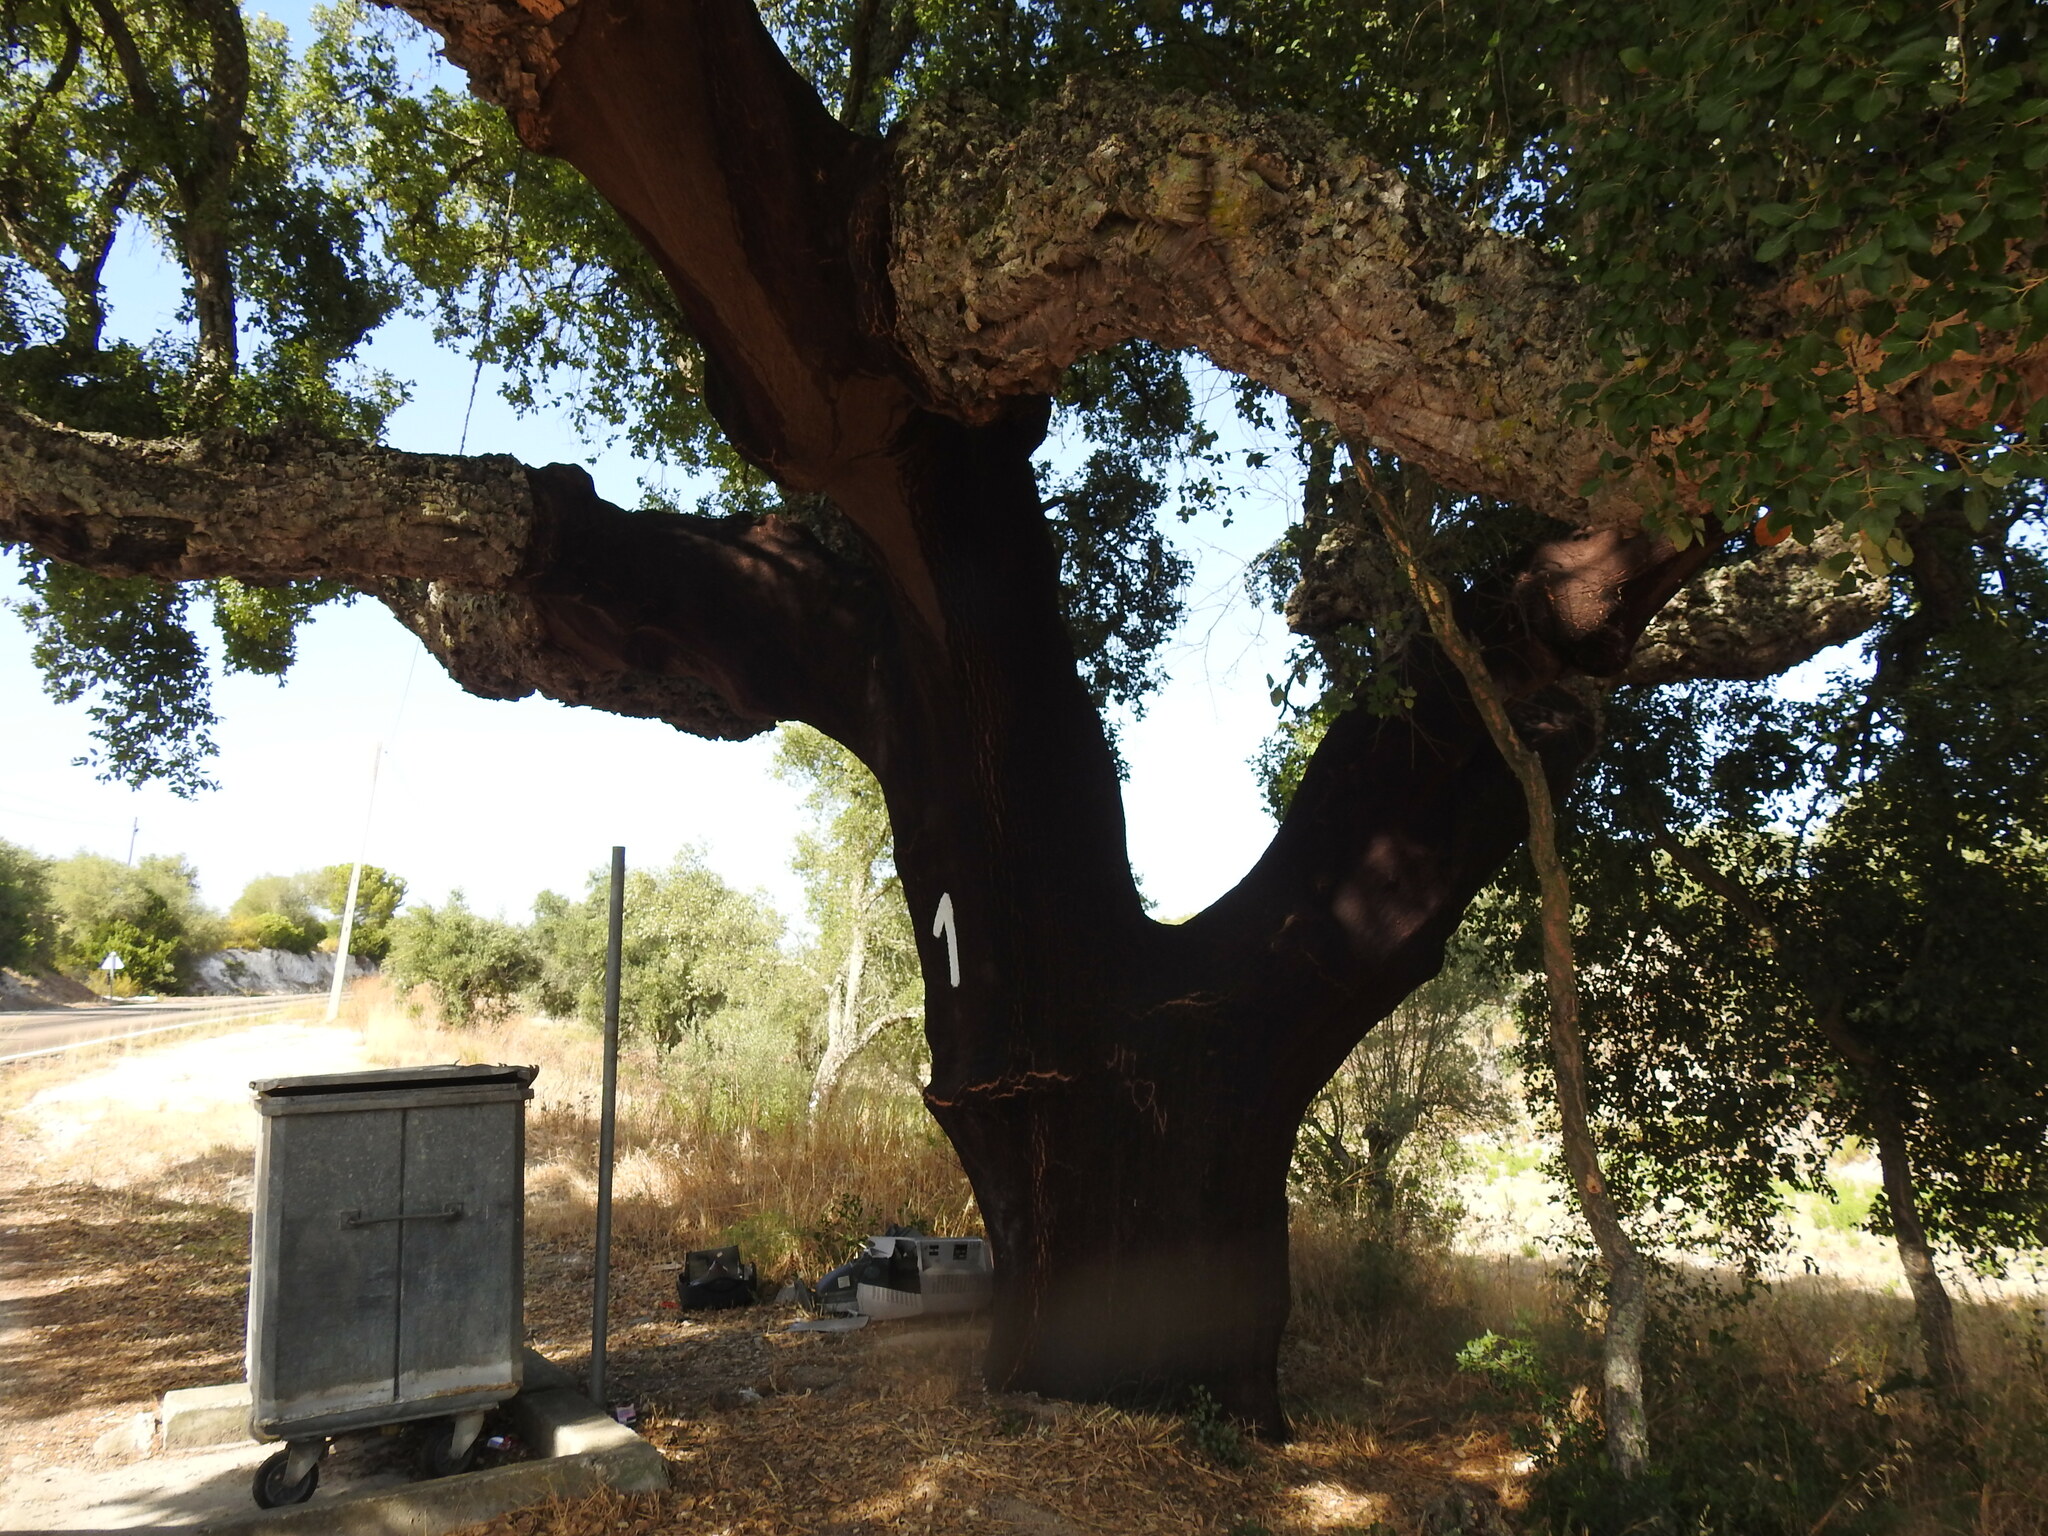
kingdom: Plantae
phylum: Tracheophyta
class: Magnoliopsida
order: Fagales
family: Fagaceae
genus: Quercus
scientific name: Quercus suber
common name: Cork oak
